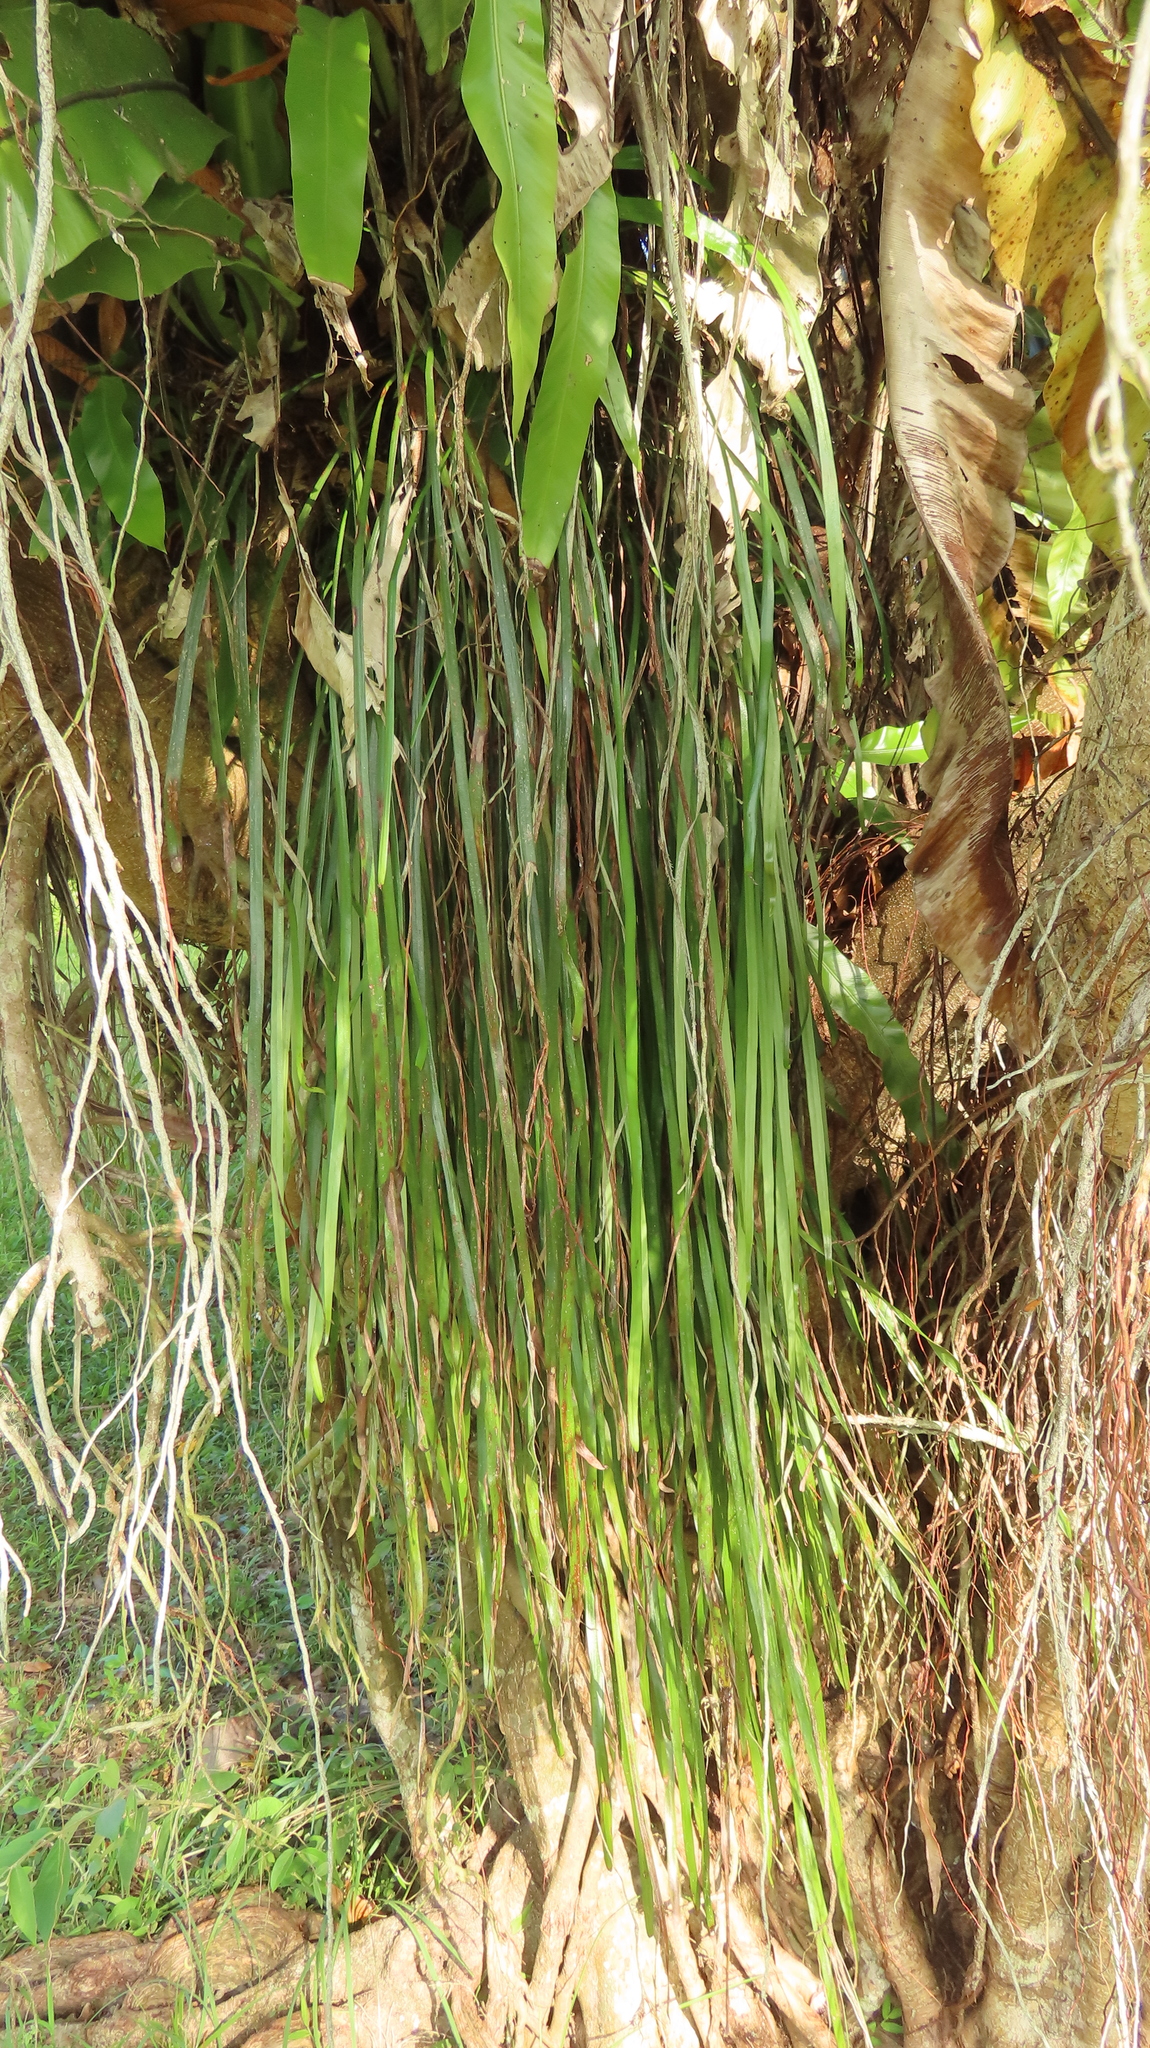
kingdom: Plantae
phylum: Tracheophyta
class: Polypodiopsida
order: Polypodiales
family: Pteridaceae
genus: Haplopteris
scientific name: Haplopteris elongata
